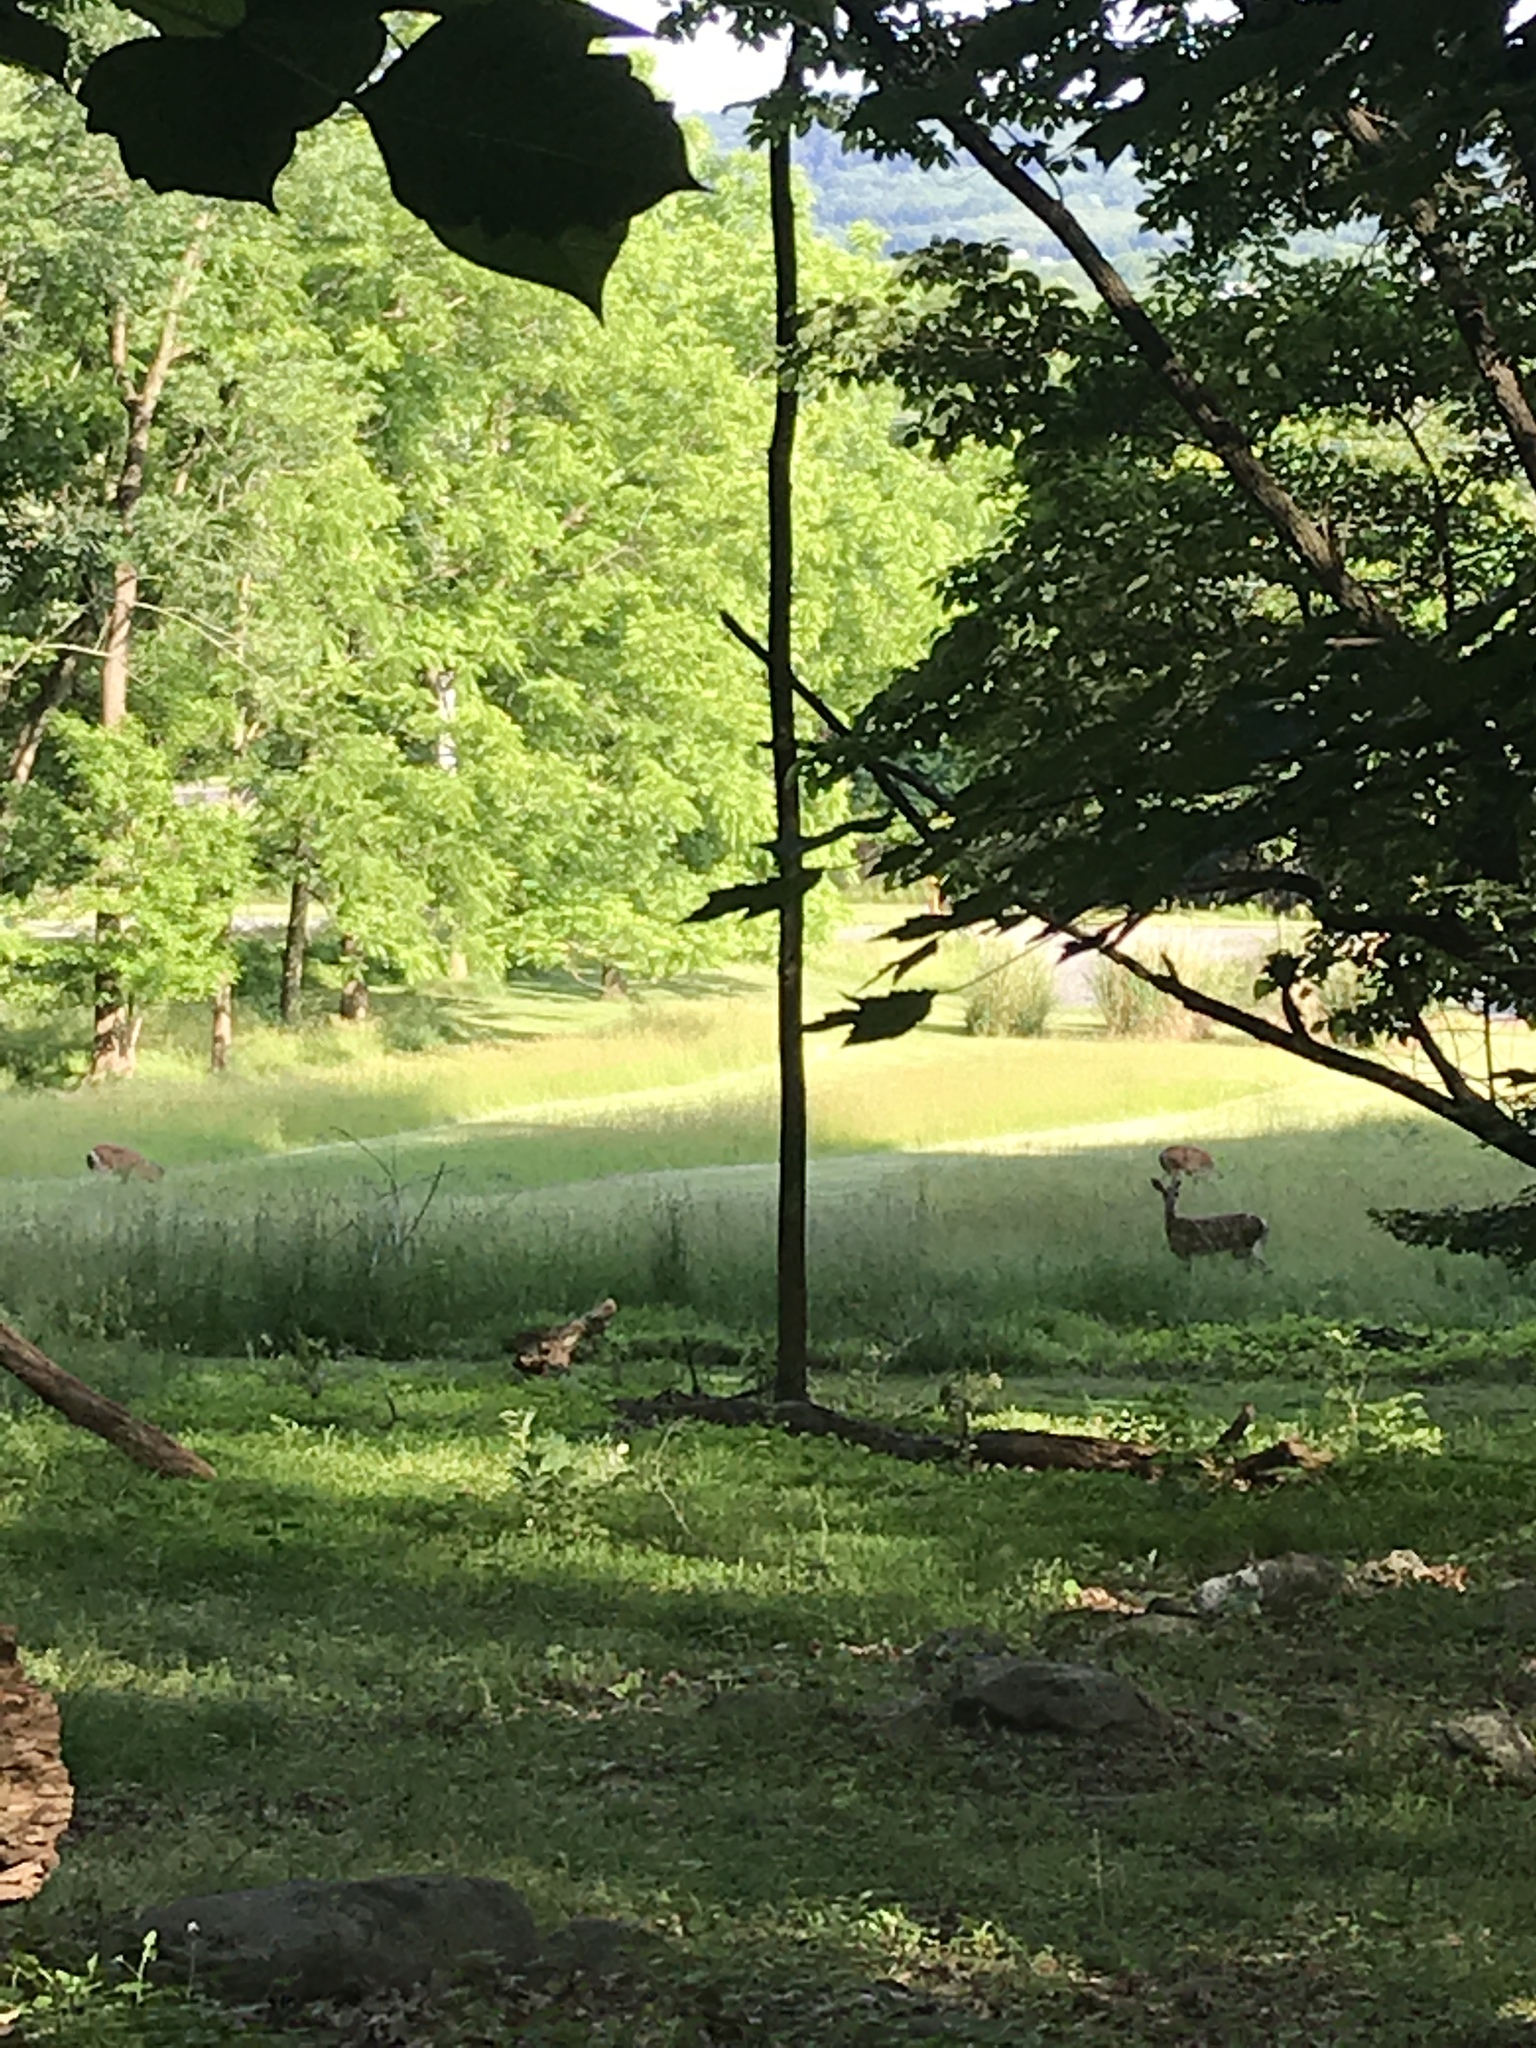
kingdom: Animalia
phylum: Chordata
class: Mammalia
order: Artiodactyla
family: Cervidae
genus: Odocoileus
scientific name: Odocoileus virginianus
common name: White-tailed deer
